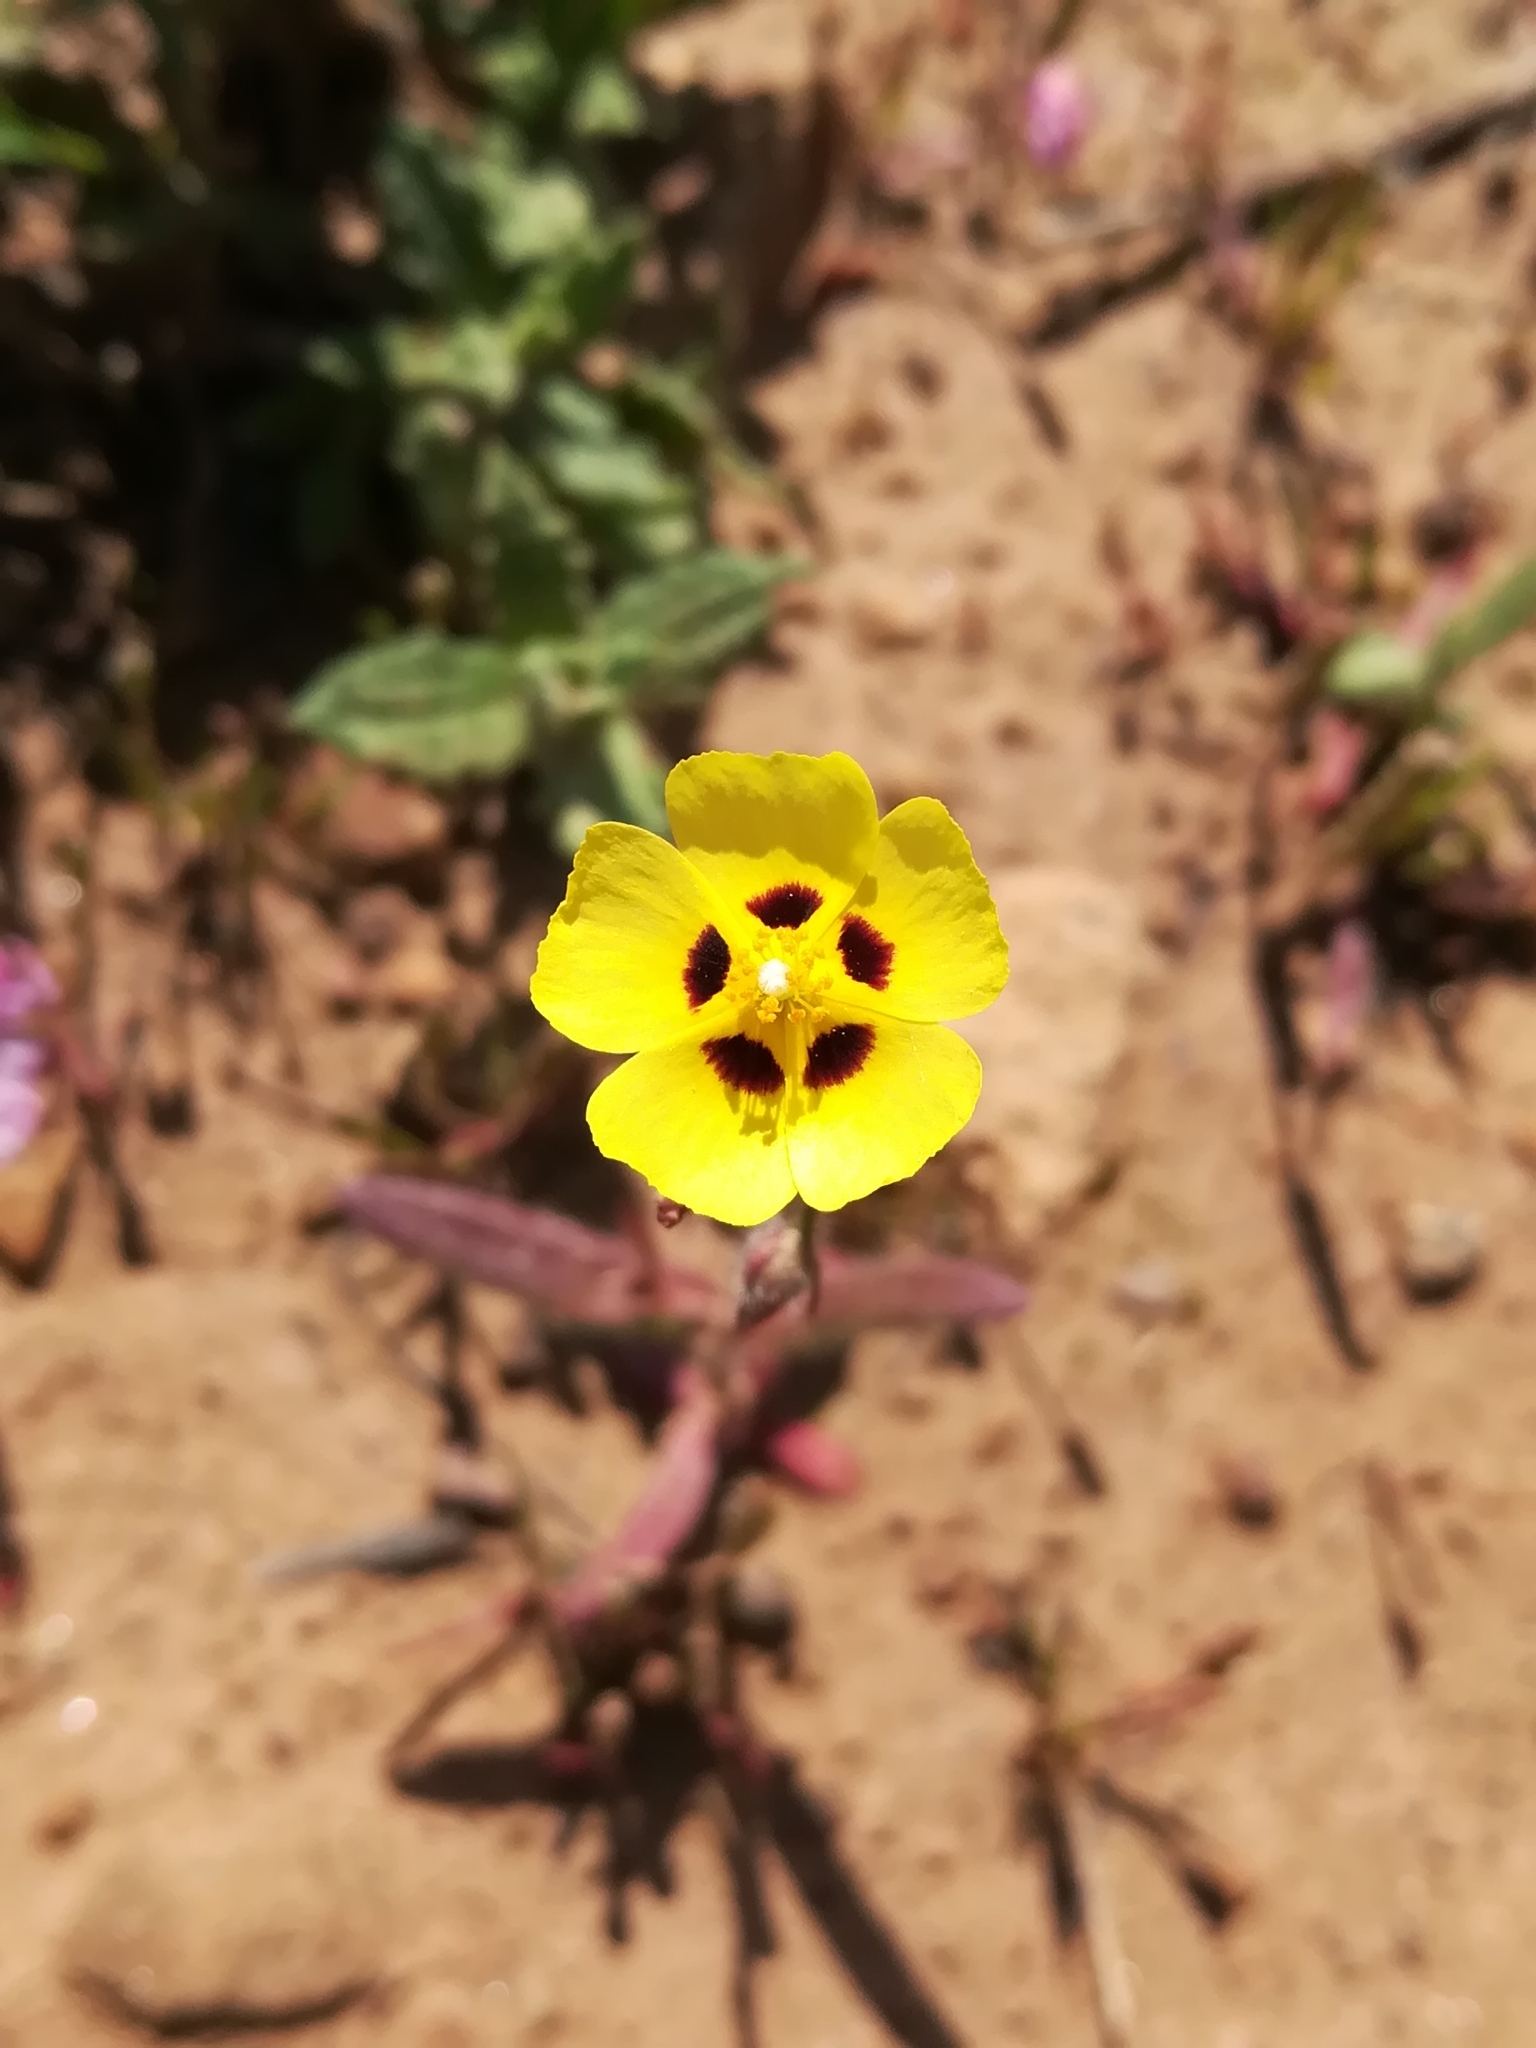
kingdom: Plantae
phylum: Tracheophyta
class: Magnoliopsida
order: Malvales
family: Cistaceae
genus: Tuberaria
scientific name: Tuberaria guttata
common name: Spotted rock-rose
